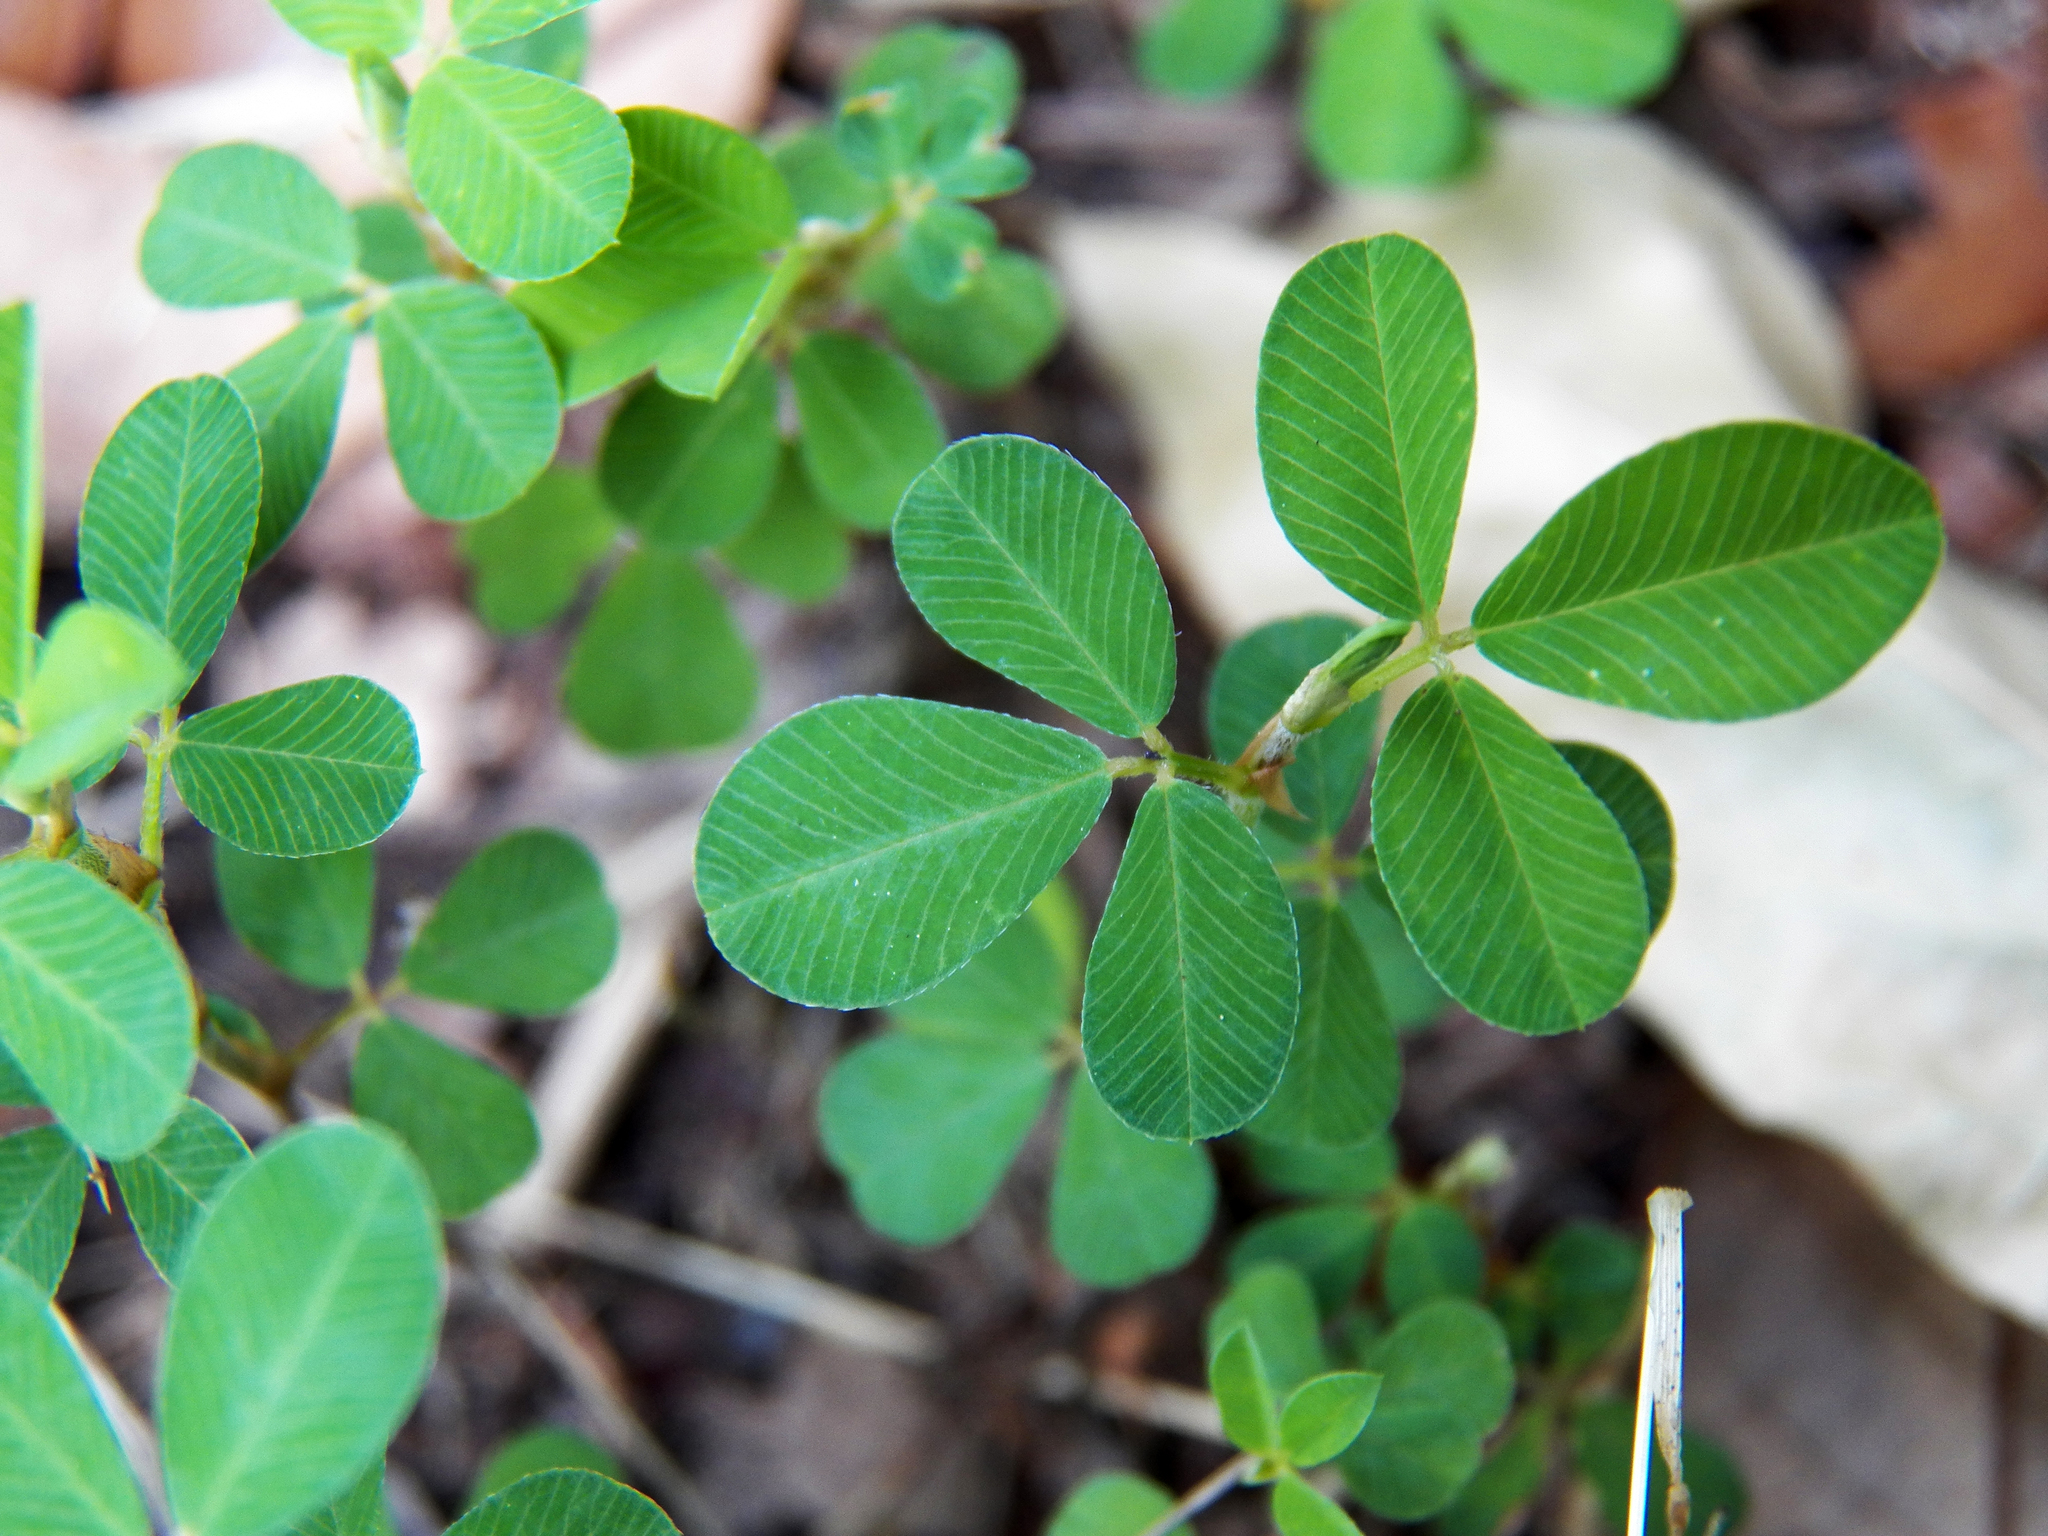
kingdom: Plantae
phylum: Tracheophyta
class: Magnoliopsida
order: Fabales
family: Fabaceae
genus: Kummerowia
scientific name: Kummerowia striata
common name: Japanese clover
